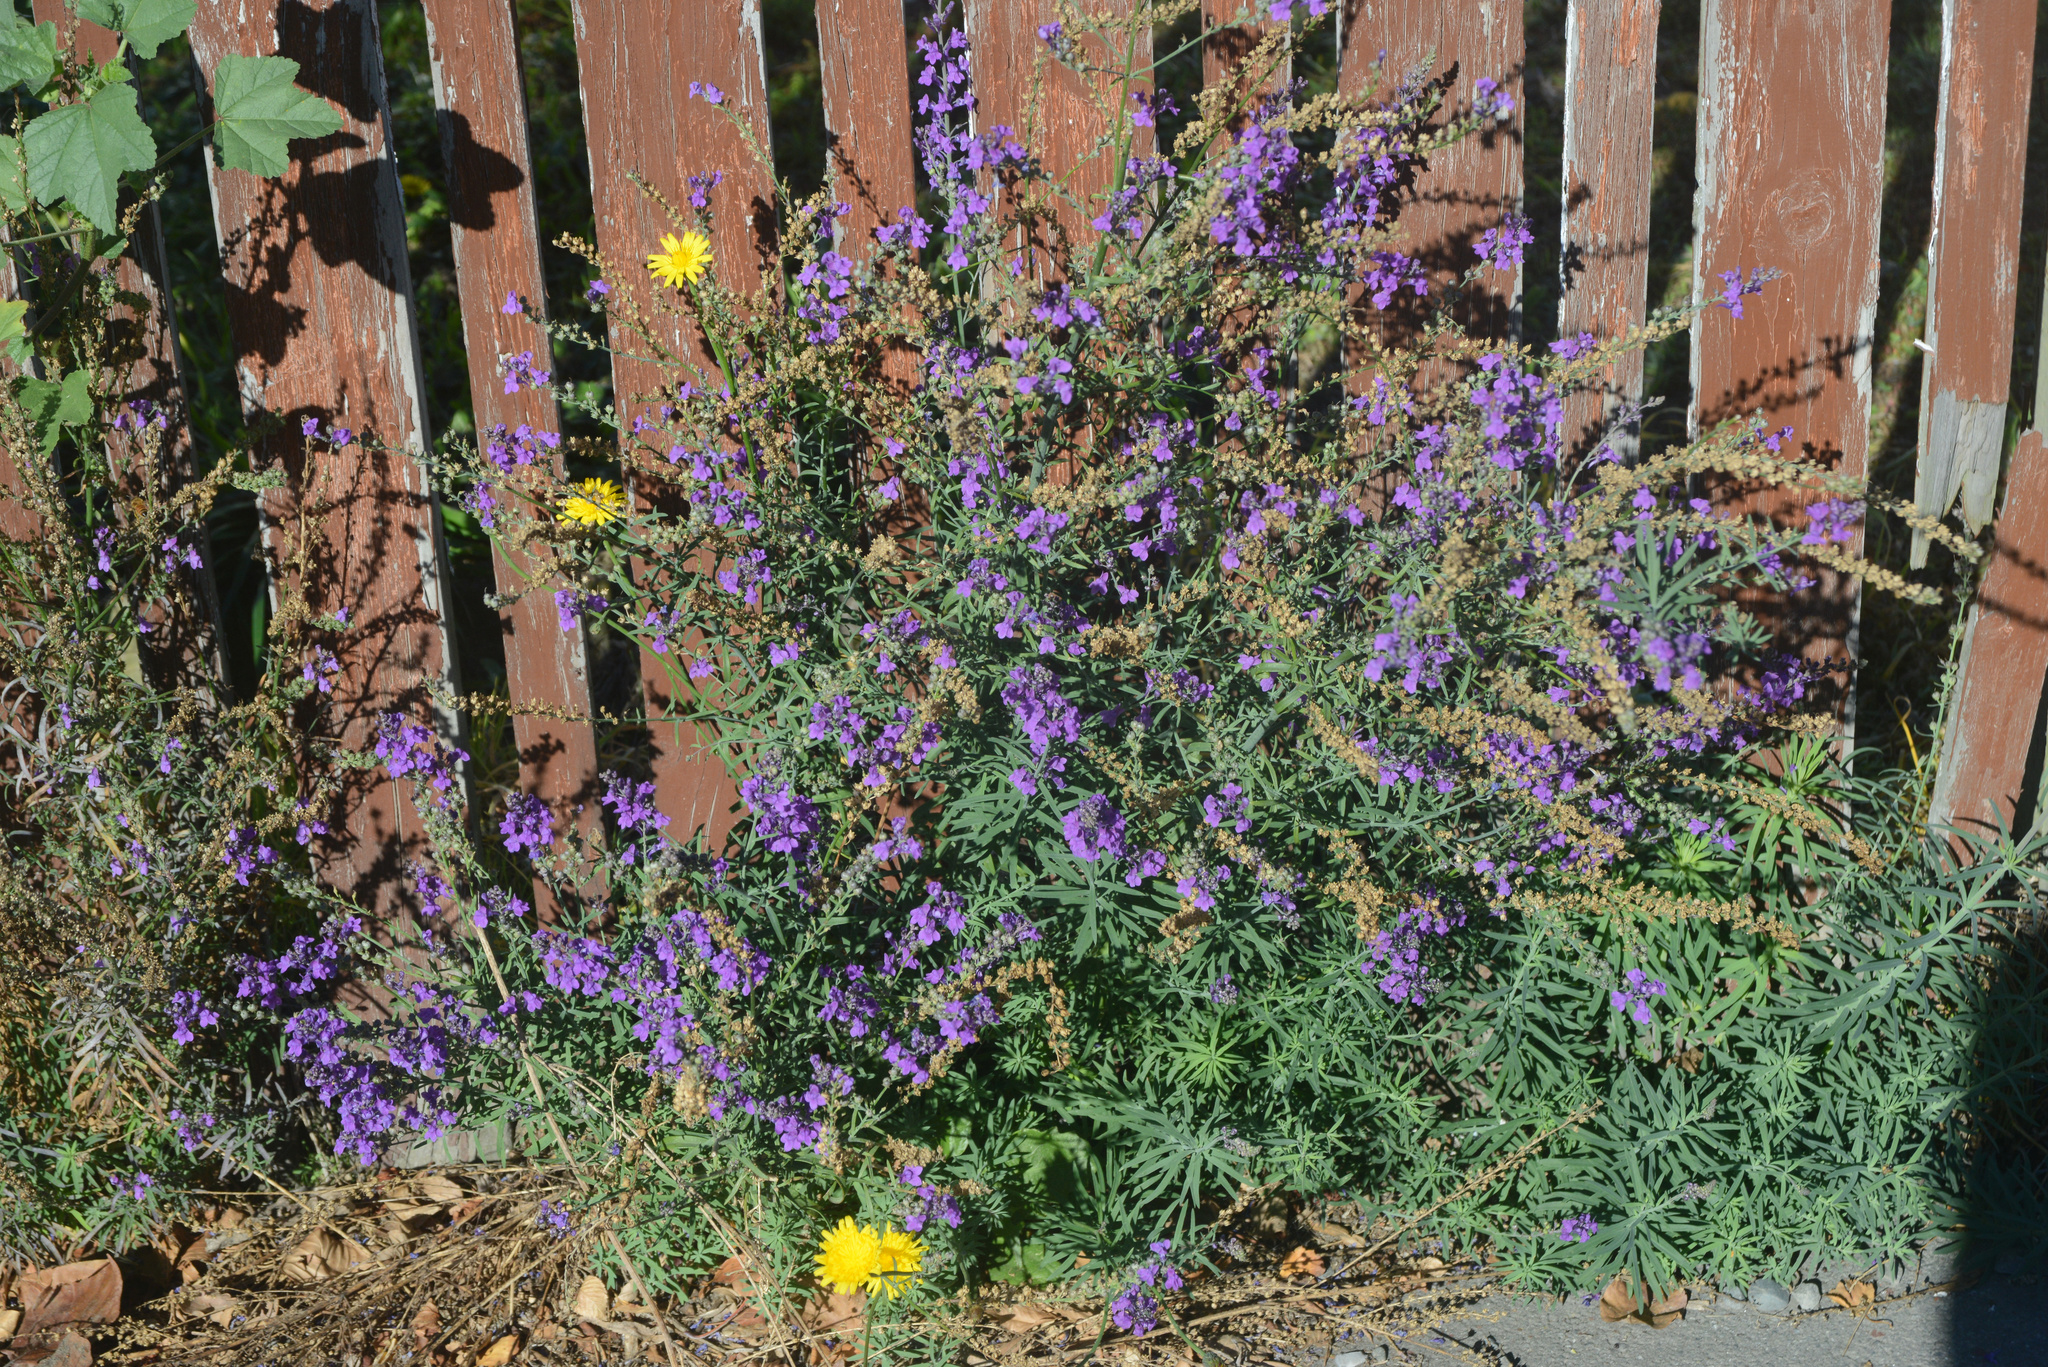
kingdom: Plantae
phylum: Tracheophyta
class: Magnoliopsida
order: Lamiales
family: Plantaginaceae
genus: Linaria
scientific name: Linaria purpurea
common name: Purple toadflax
